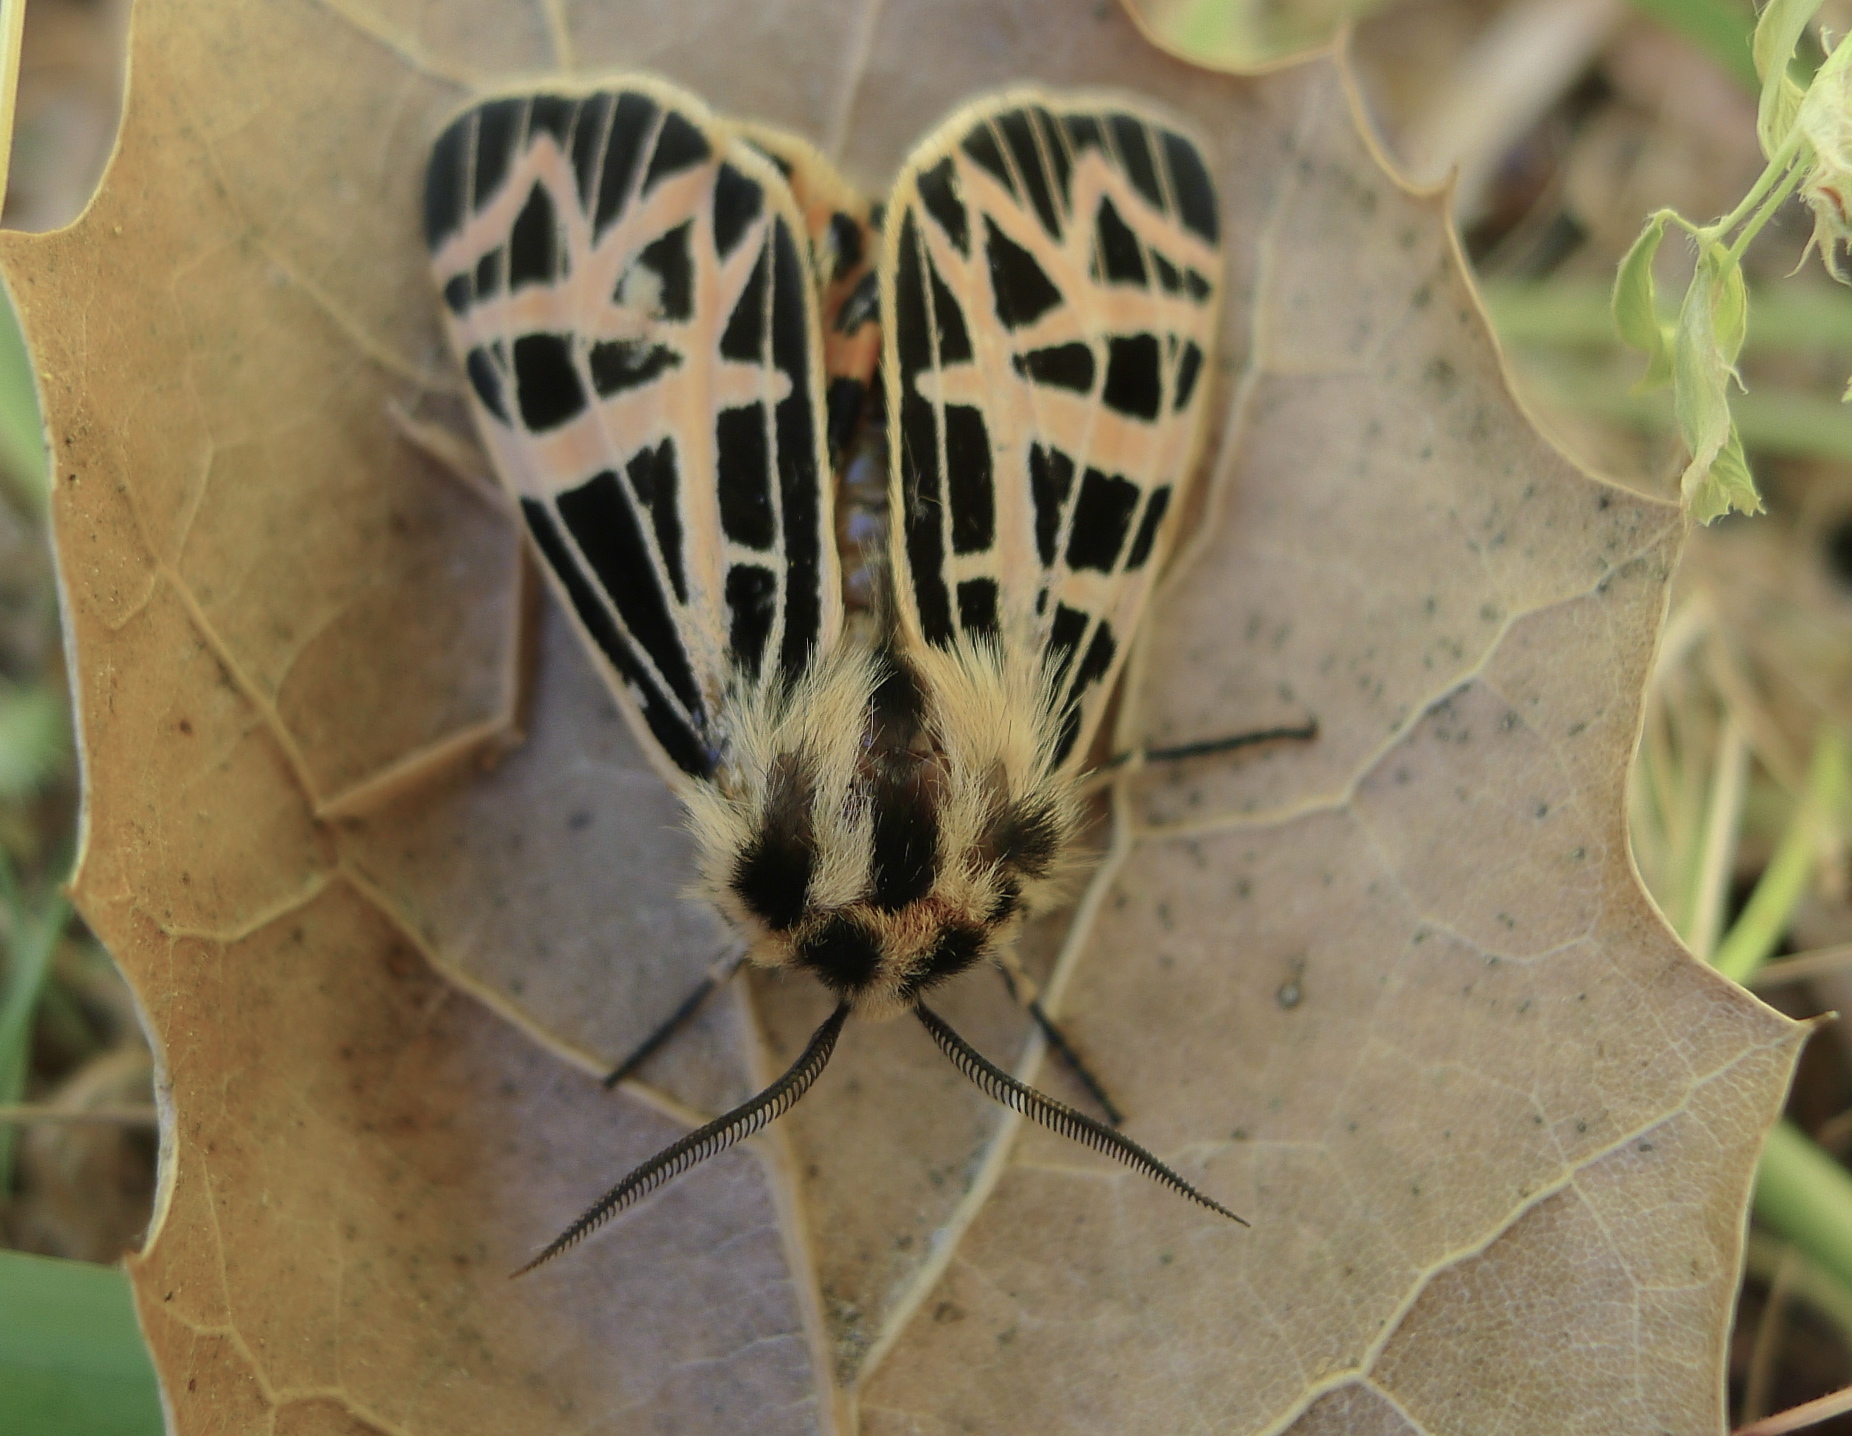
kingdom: Animalia
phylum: Arthropoda
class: Insecta
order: Lepidoptera
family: Erebidae
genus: Apantesis
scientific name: Apantesis
